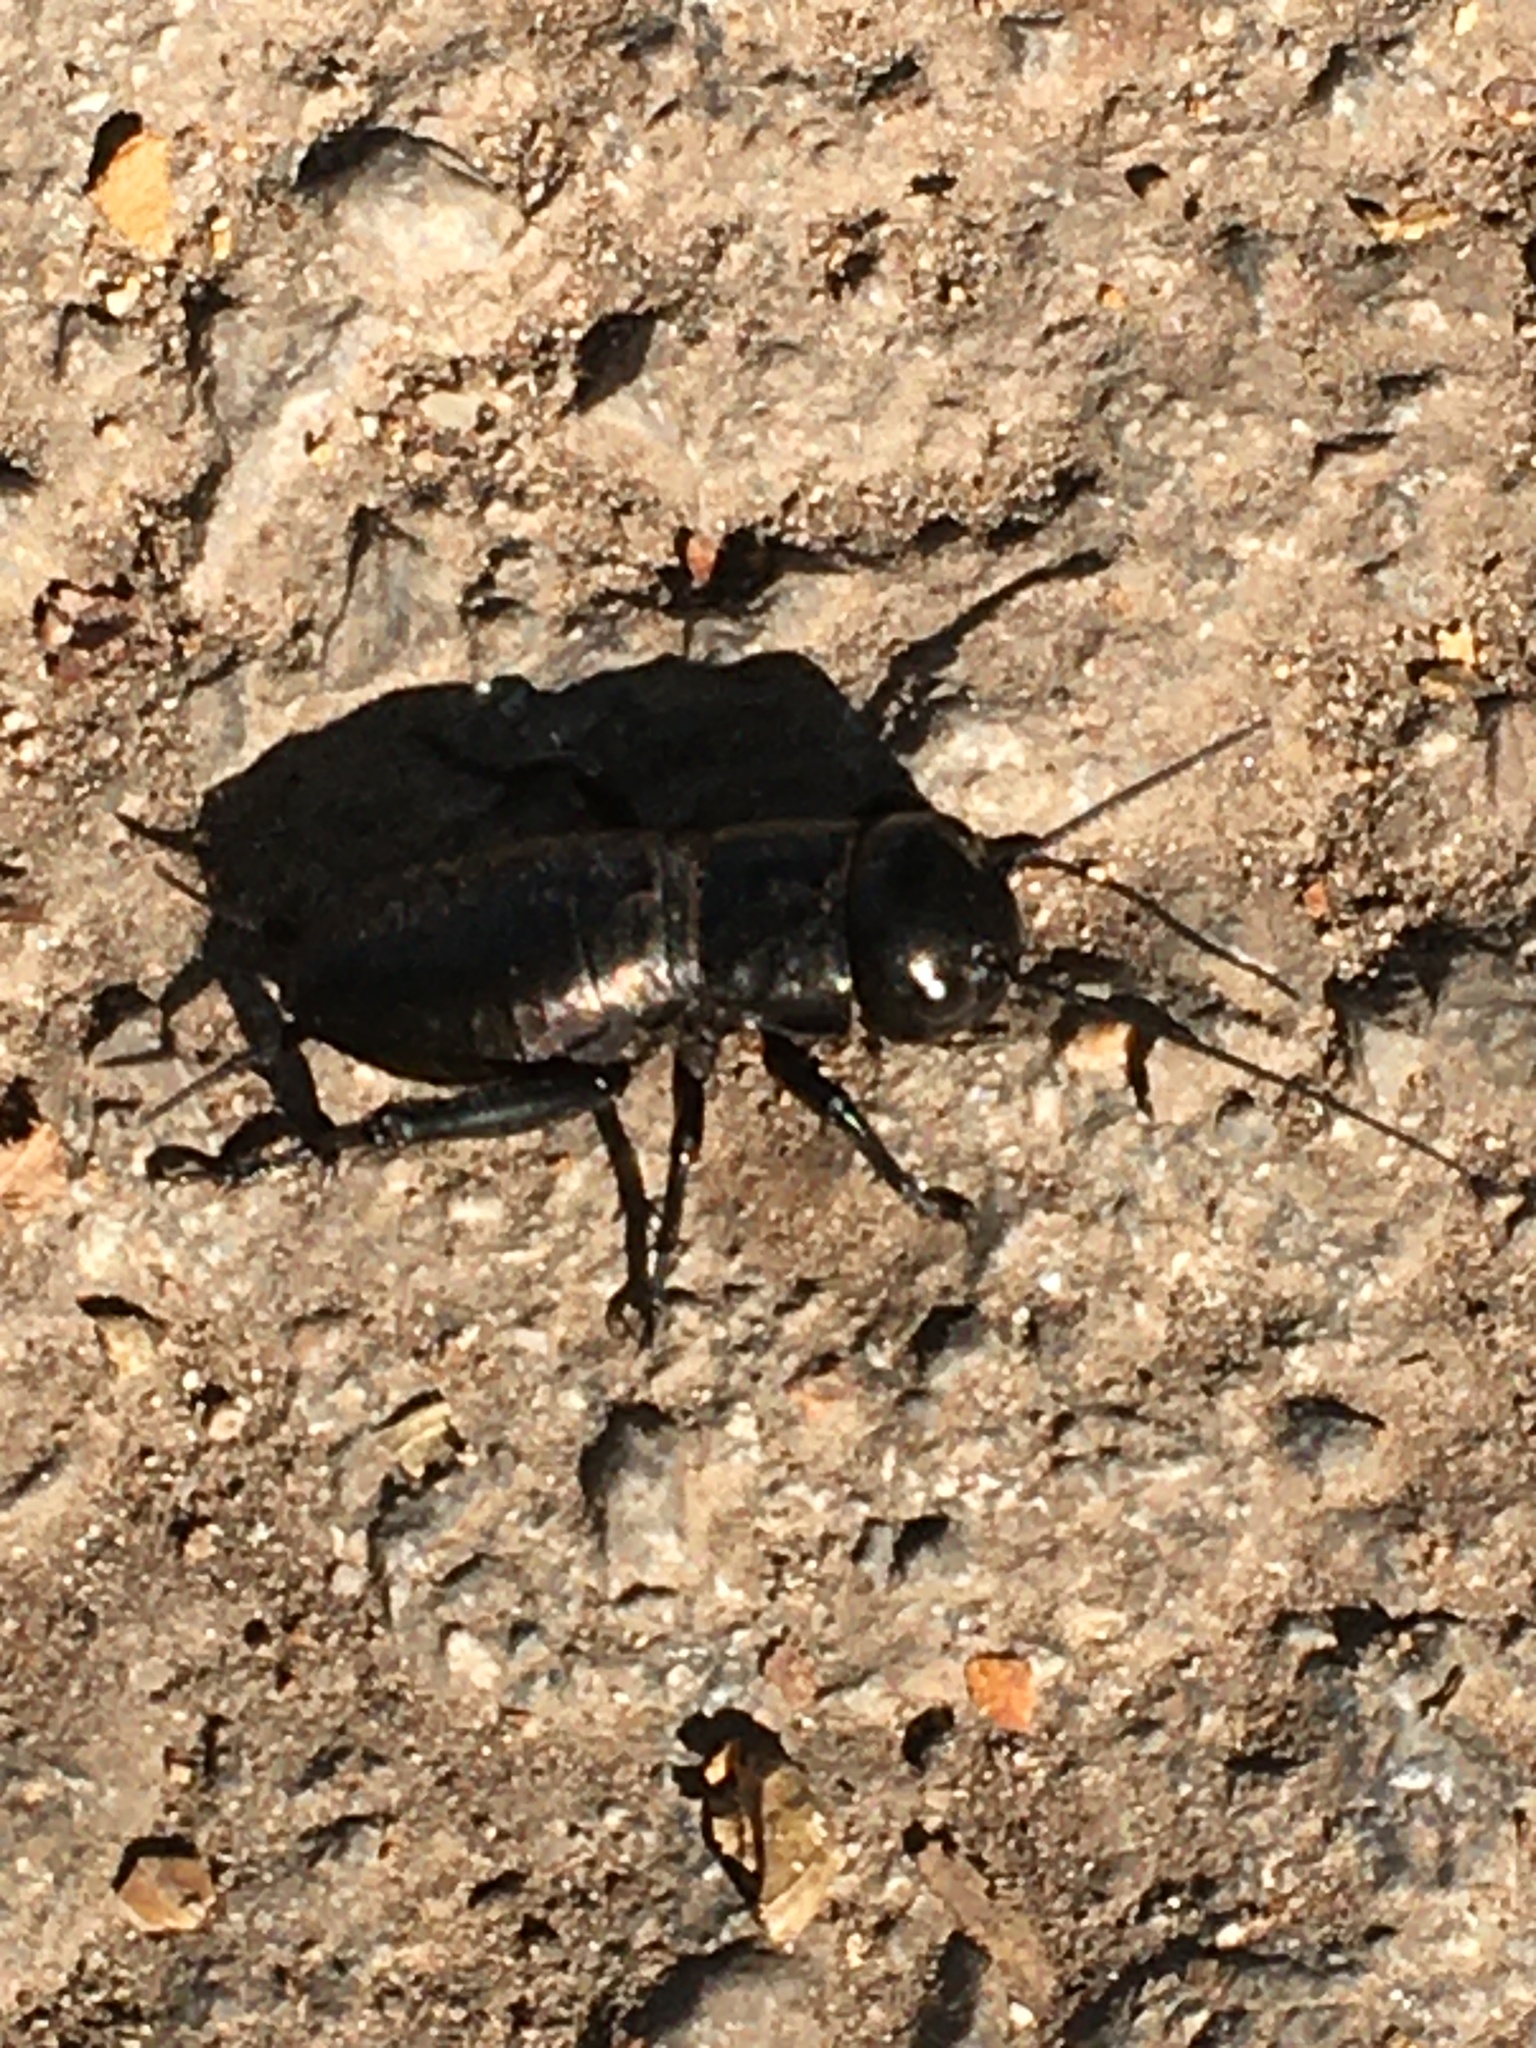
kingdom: Animalia
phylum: Arthropoda
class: Insecta
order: Orthoptera
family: Gryllidae
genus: Gryllus
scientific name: Gryllus campestris
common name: Field cricket
